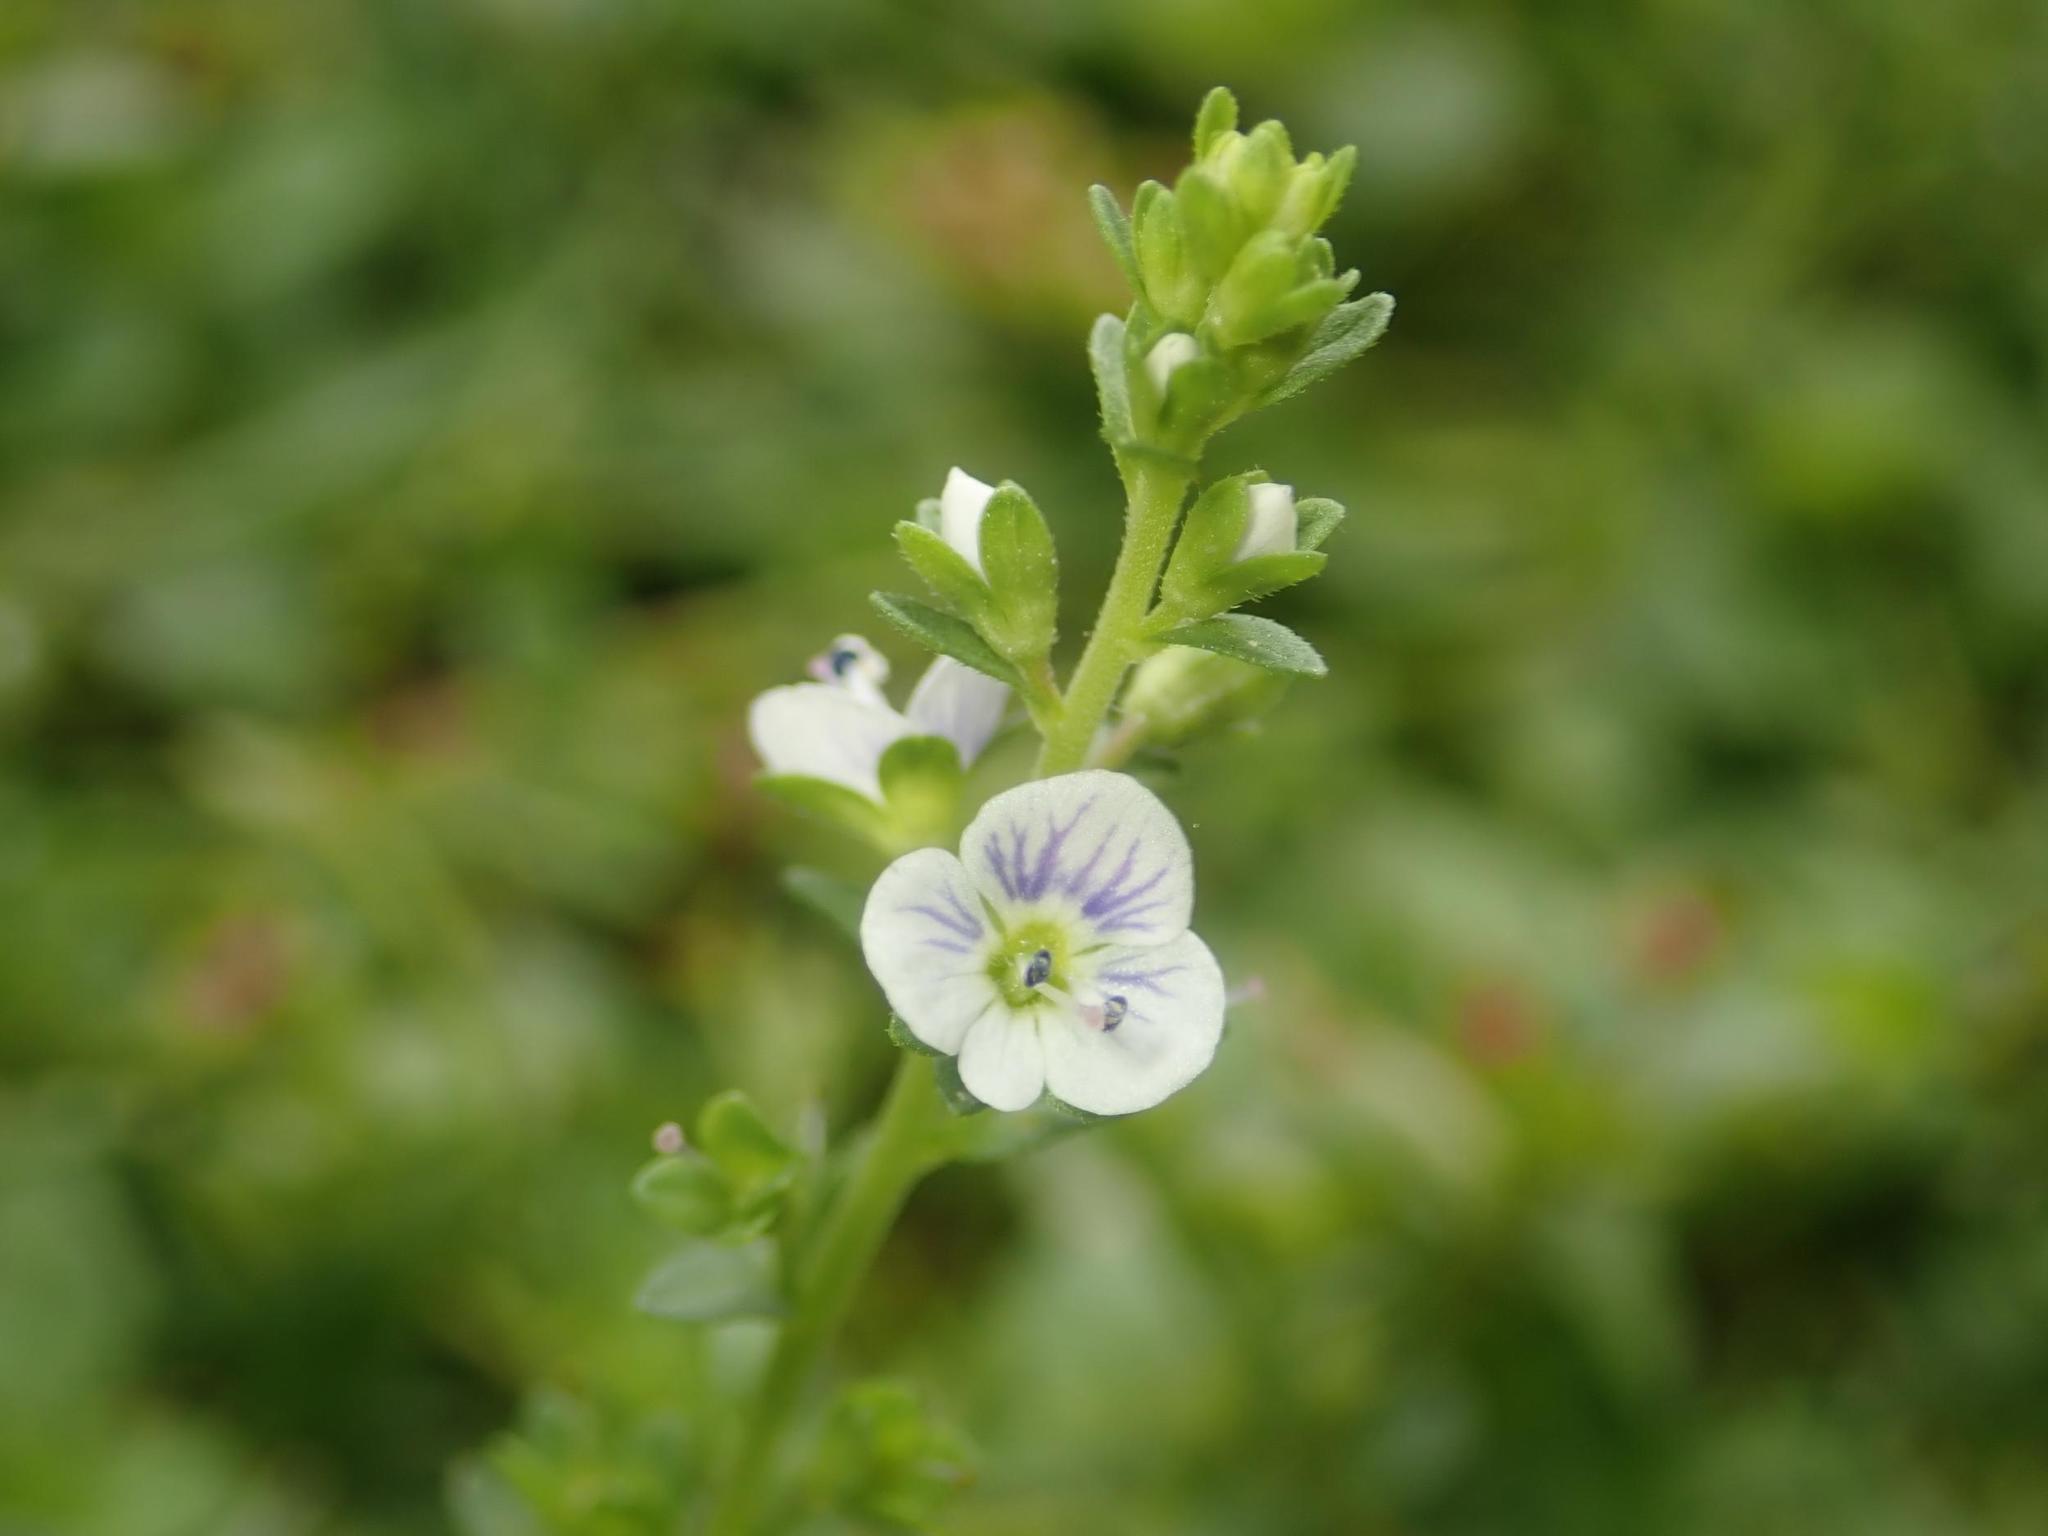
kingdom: Plantae
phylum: Tracheophyta
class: Magnoliopsida
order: Lamiales
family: Plantaginaceae
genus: Veronica
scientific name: Veronica serpyllifolia
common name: Thyme-leaved speedwell
